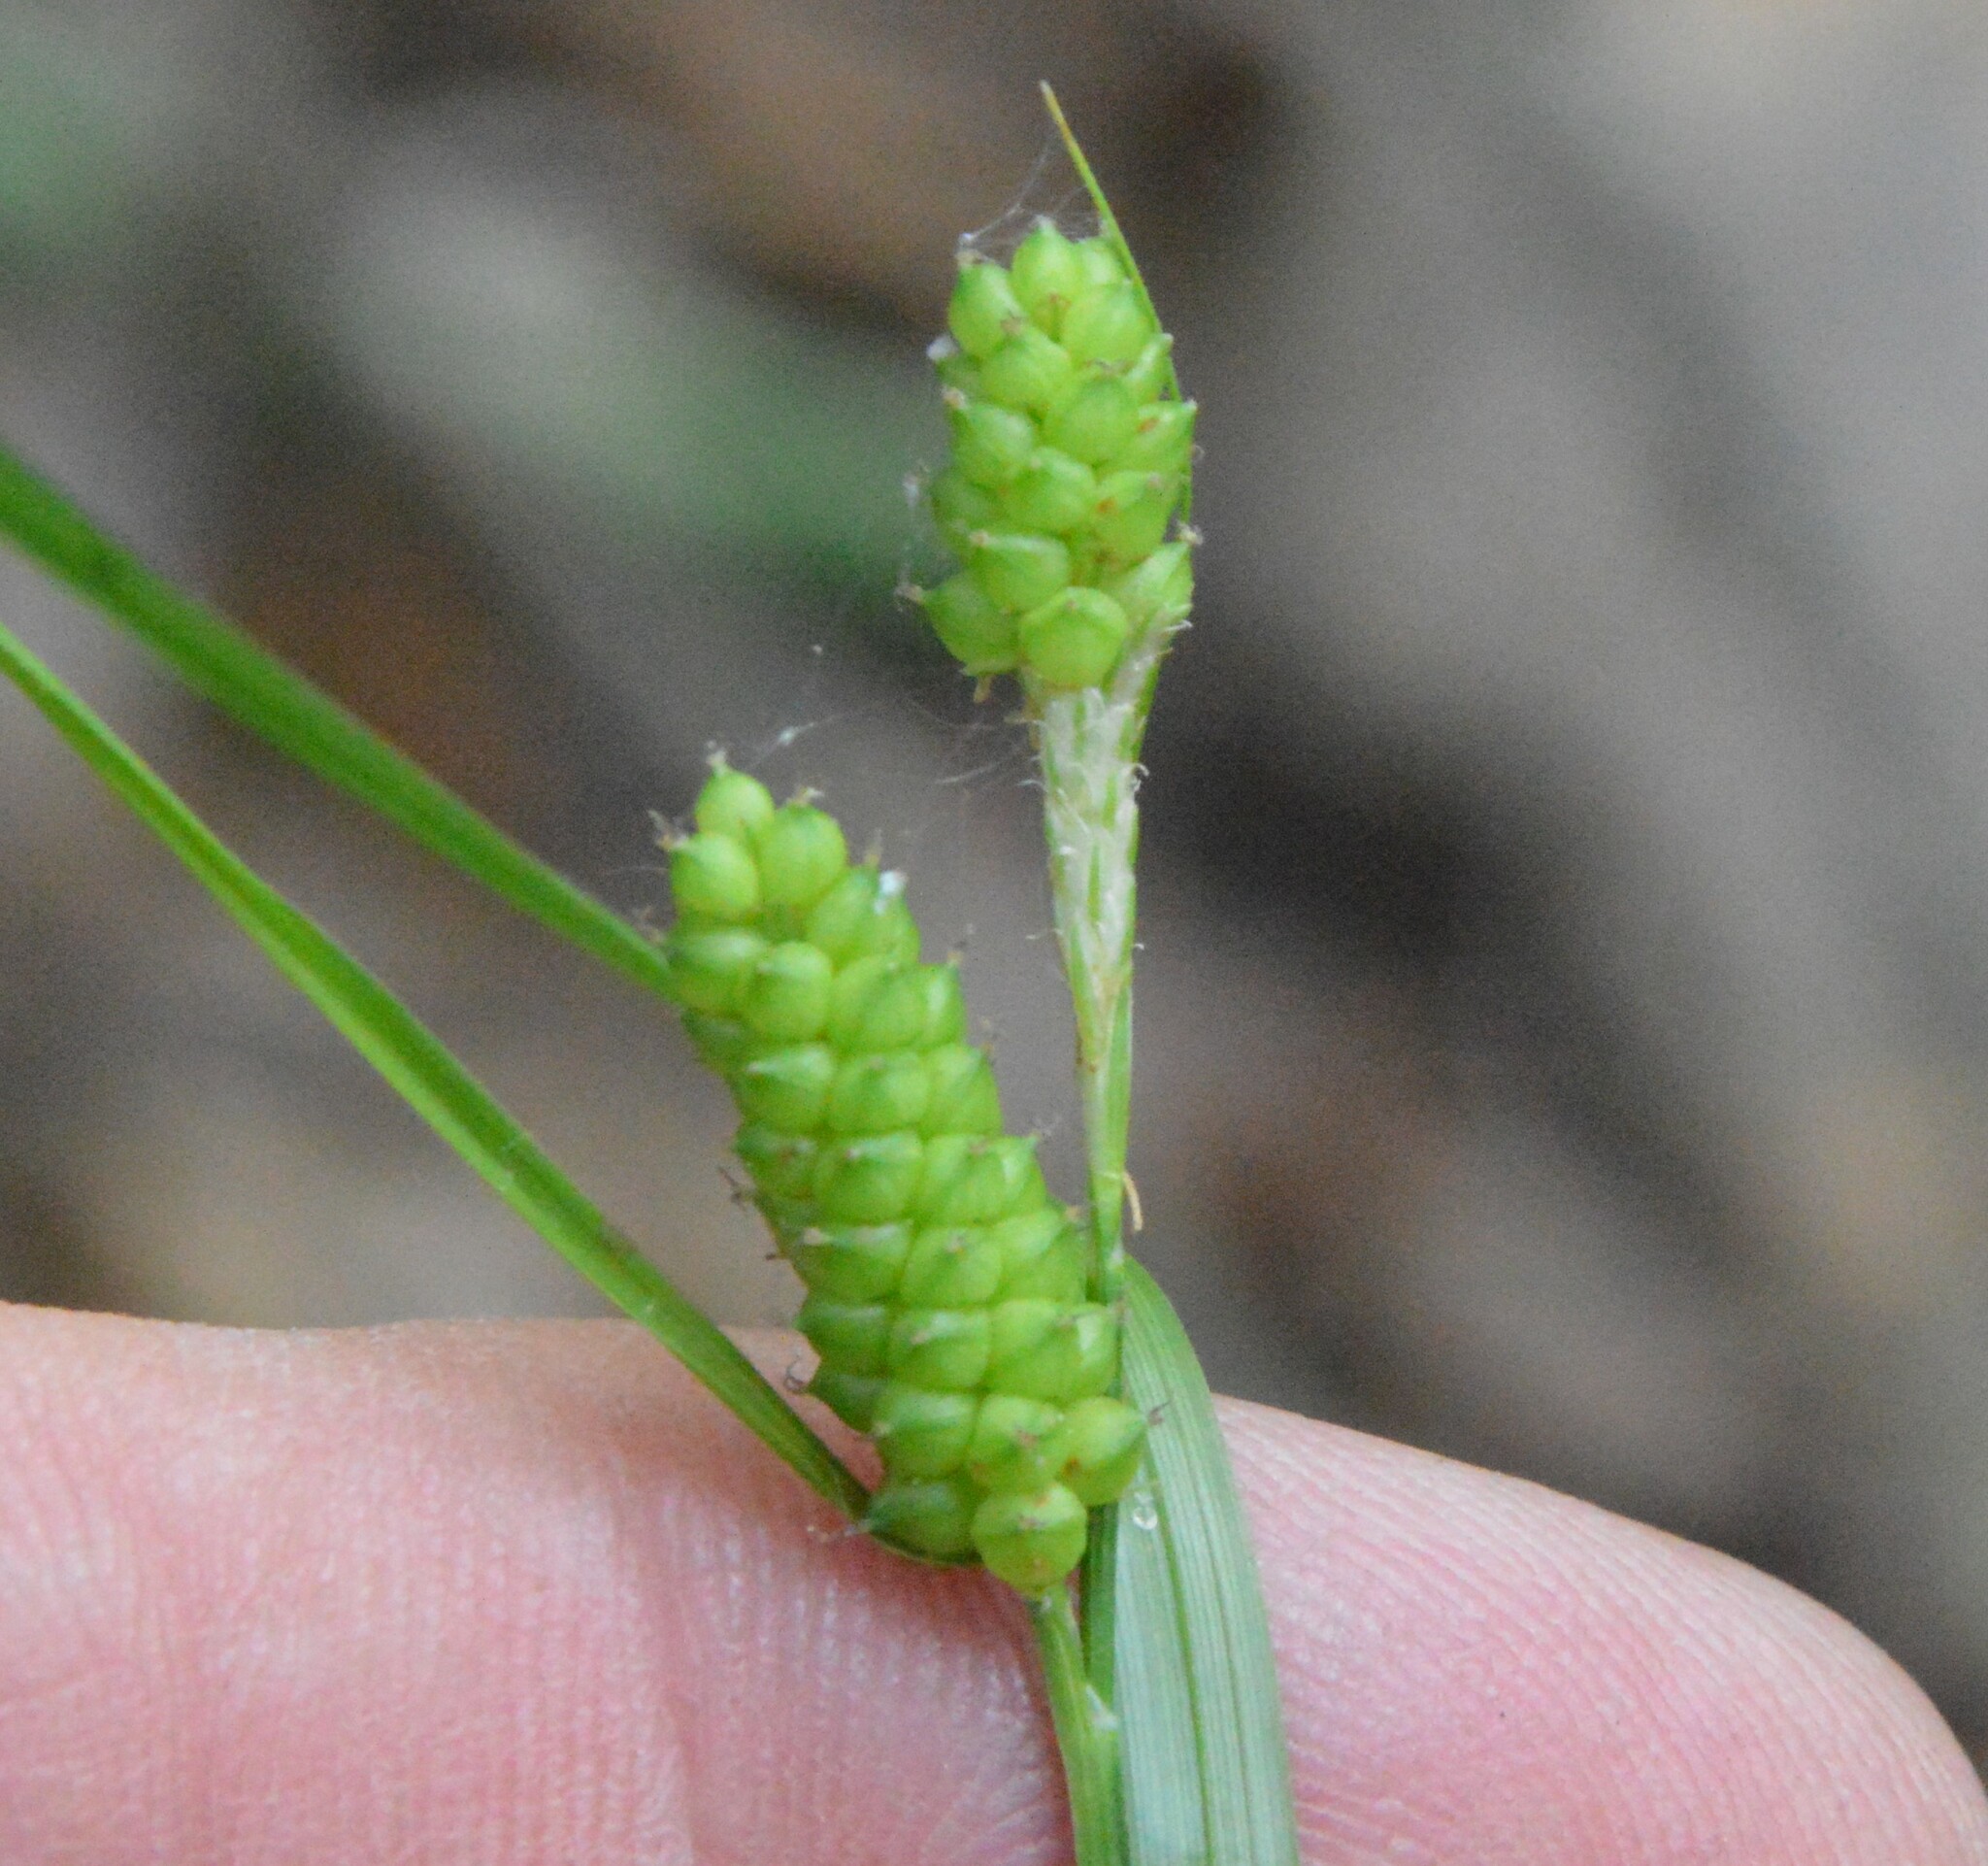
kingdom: Plantae
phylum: Tracheophyta
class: Liliopsida
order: Poales
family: Cyperaceae
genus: Carex
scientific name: Carex caroliniana
